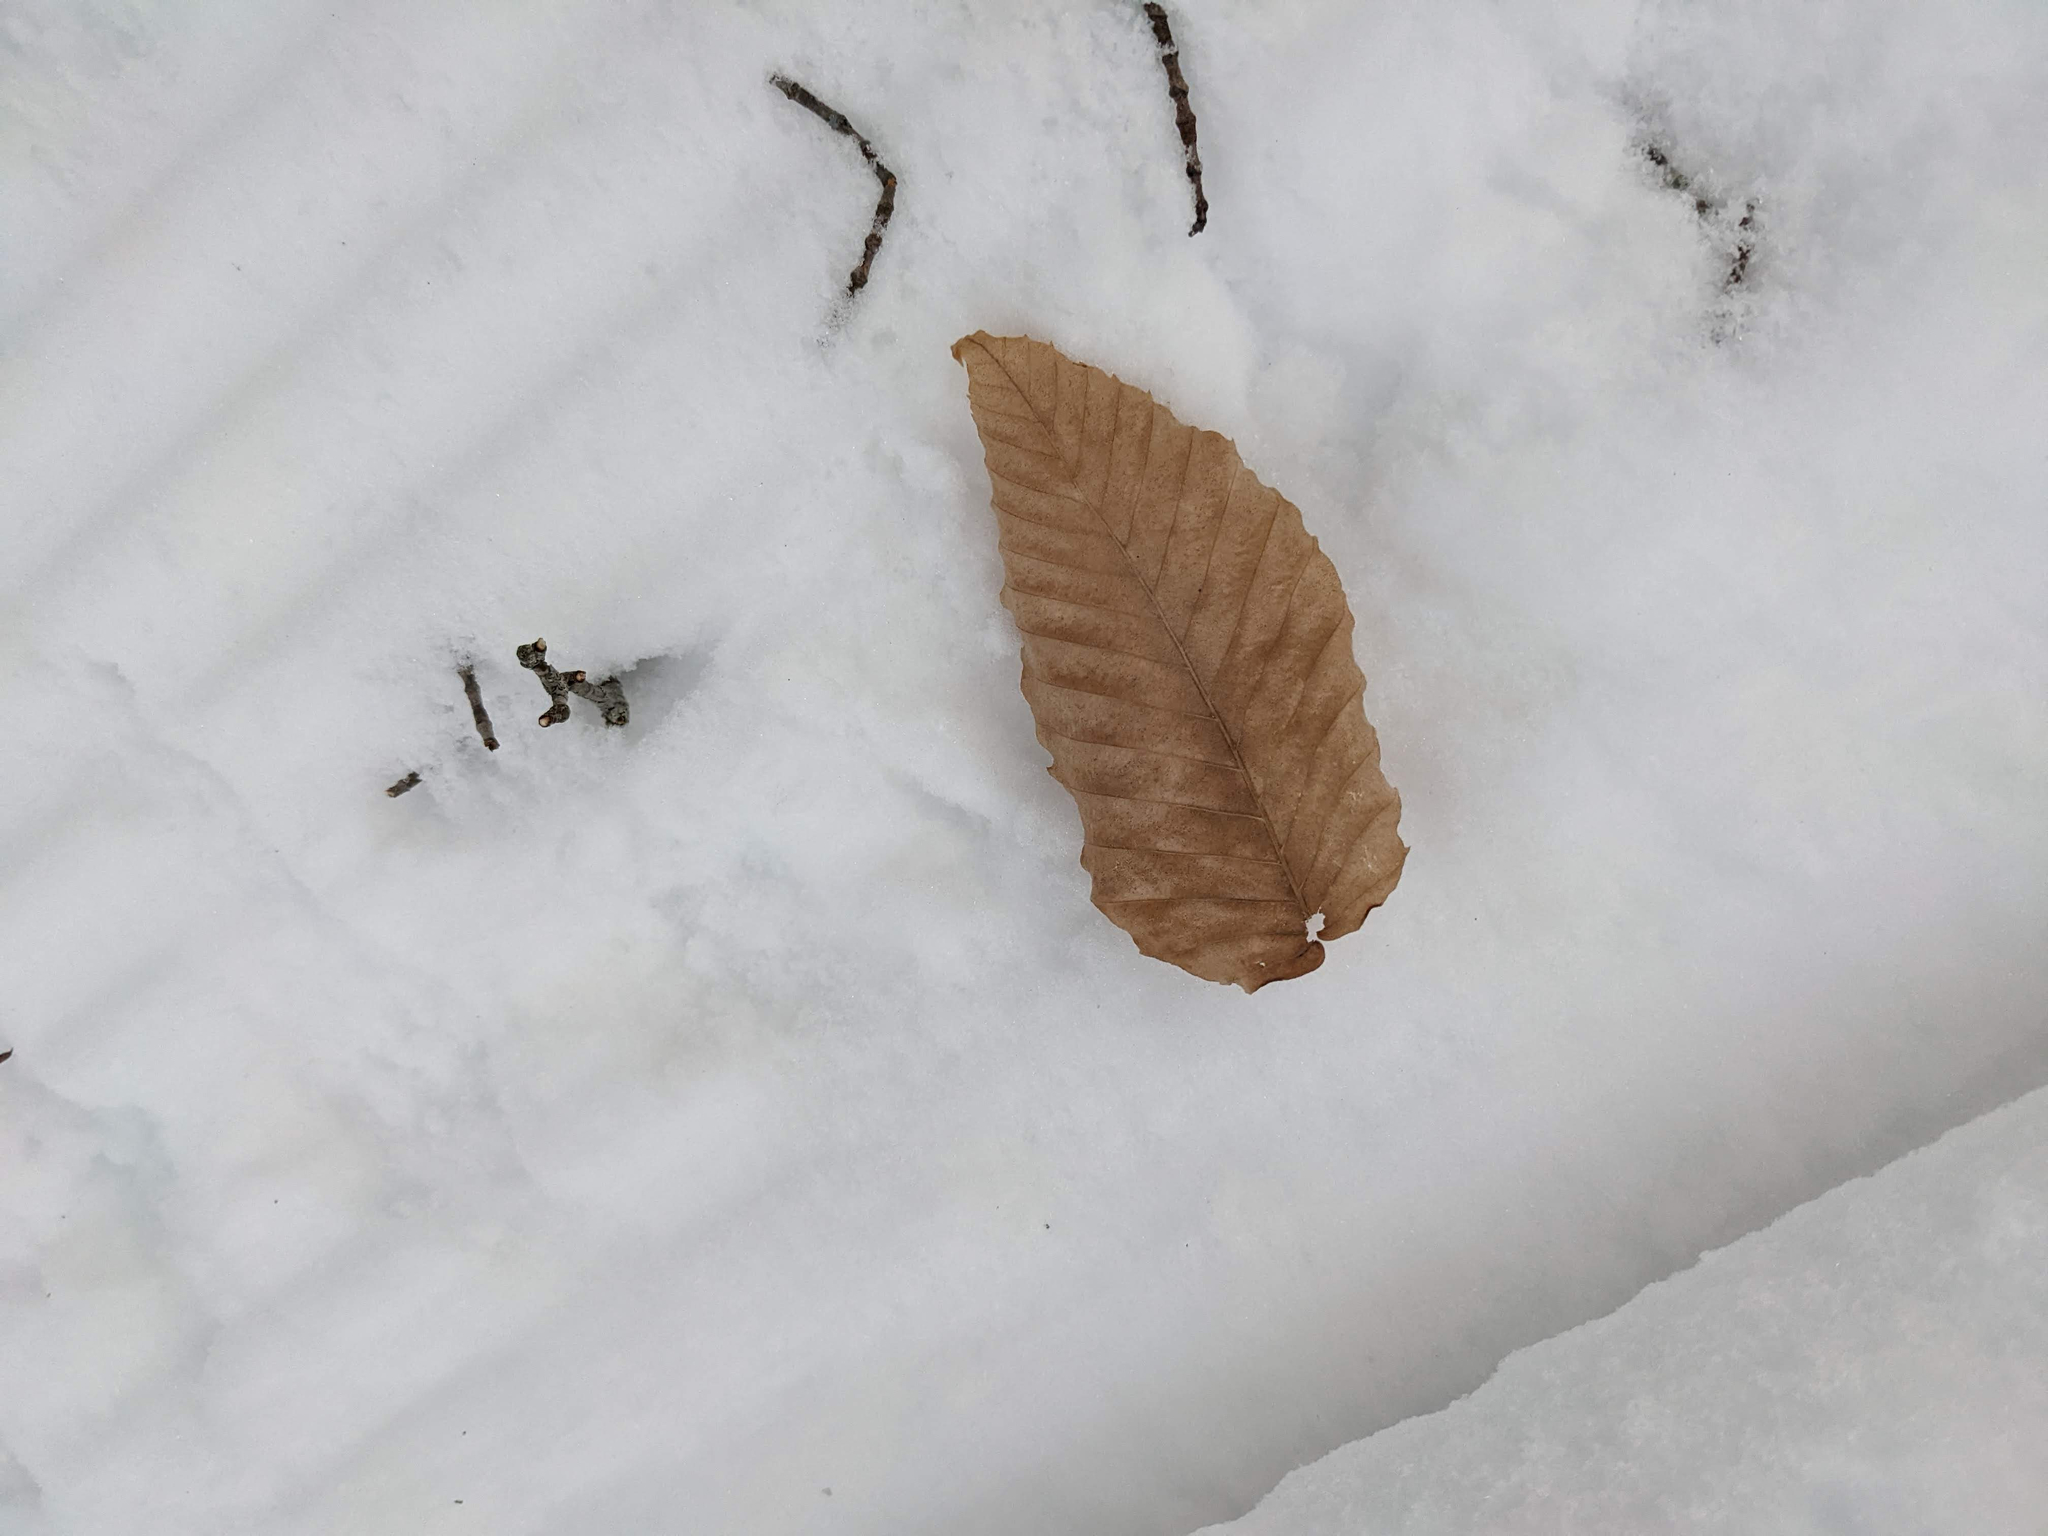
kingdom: Plantae
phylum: Tracheophyta
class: Magnoliopsida
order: Fagales
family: Fagaceae
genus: Fagus
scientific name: Fagus grandifolia
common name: American beech
